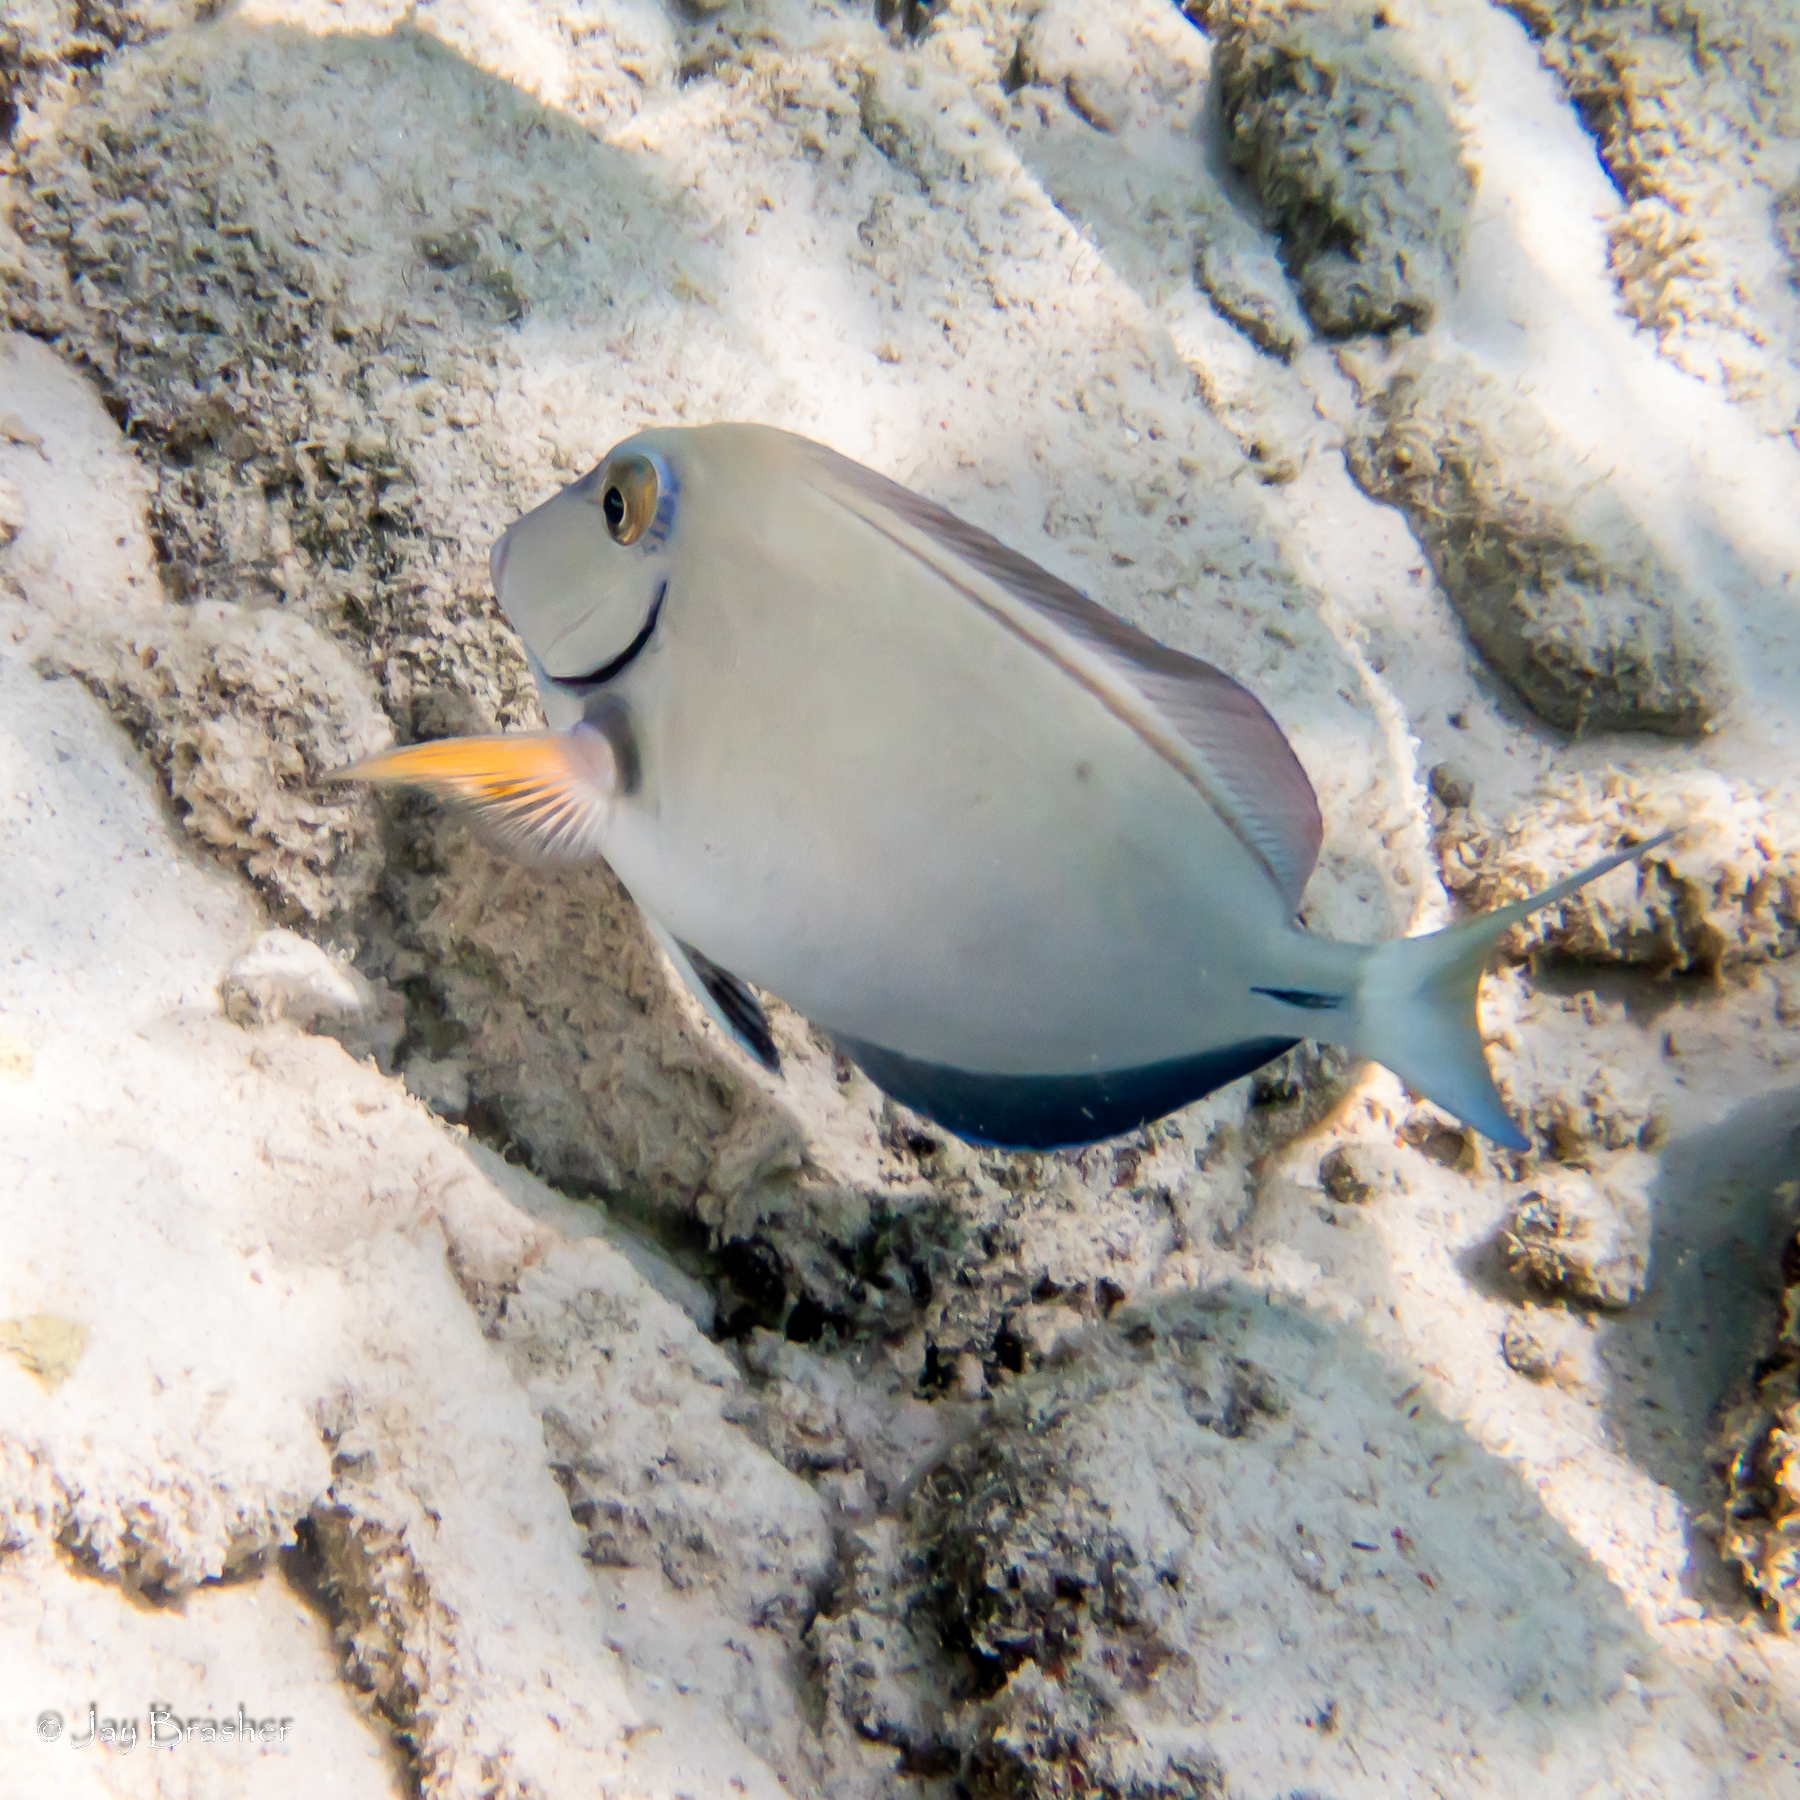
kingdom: Animalia
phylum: Chordata
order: Perciformes
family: Acanthuridae
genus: Acanthurus
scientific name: Acanthurus bahianus
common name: Ocean surgeon
